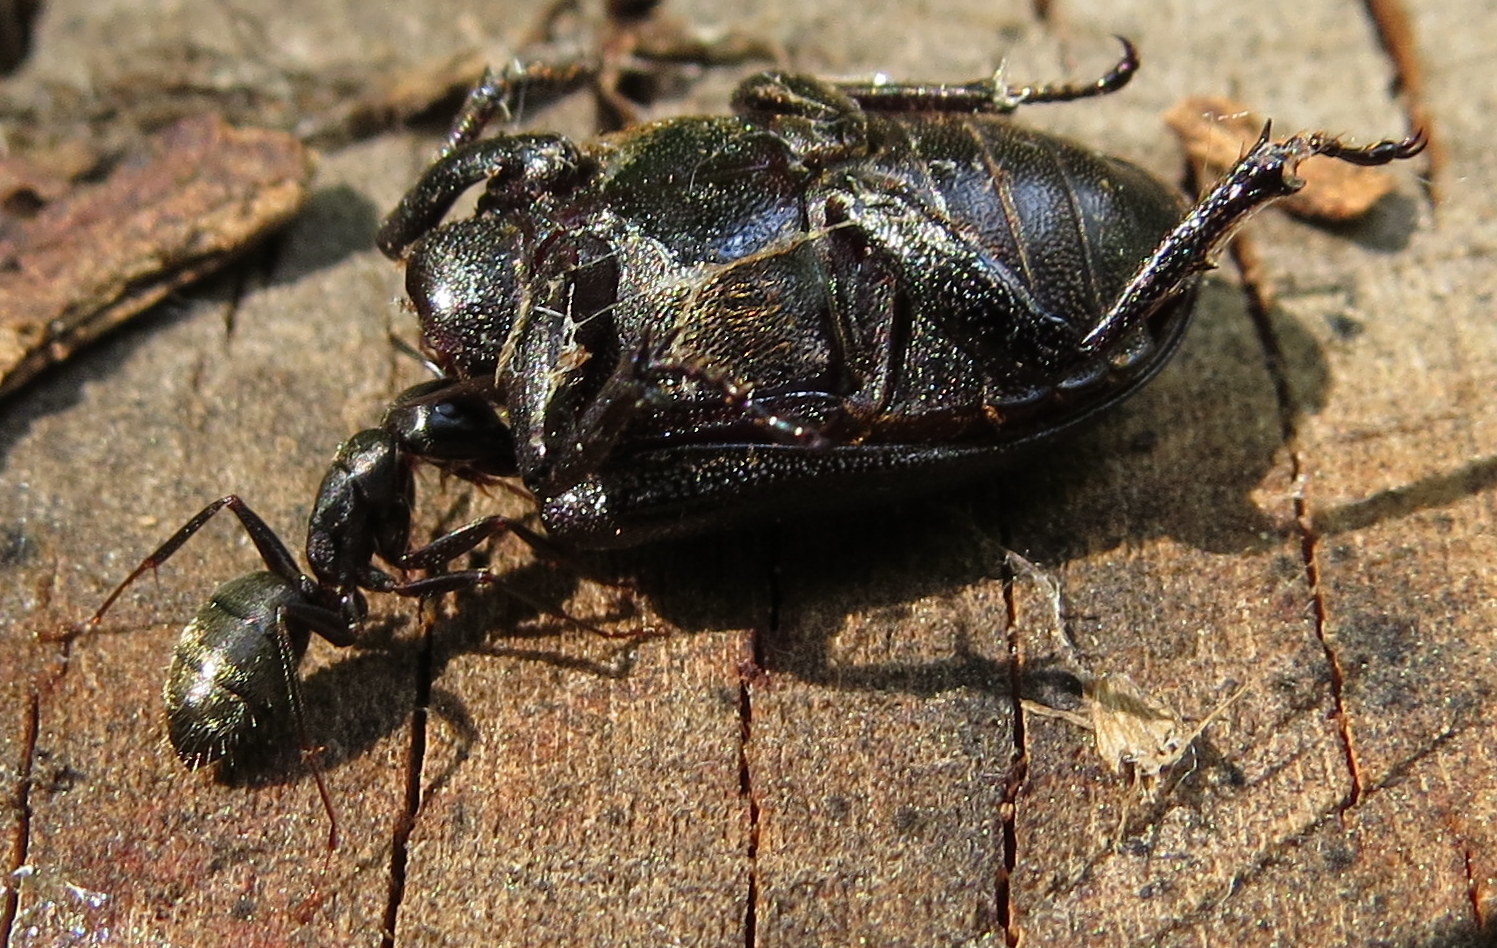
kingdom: Animalia
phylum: Arthropoda
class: Insecta
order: Coleoptera
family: Lucanidae
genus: Dorcus
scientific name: Dorcus parallelus
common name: Antelope beetle
